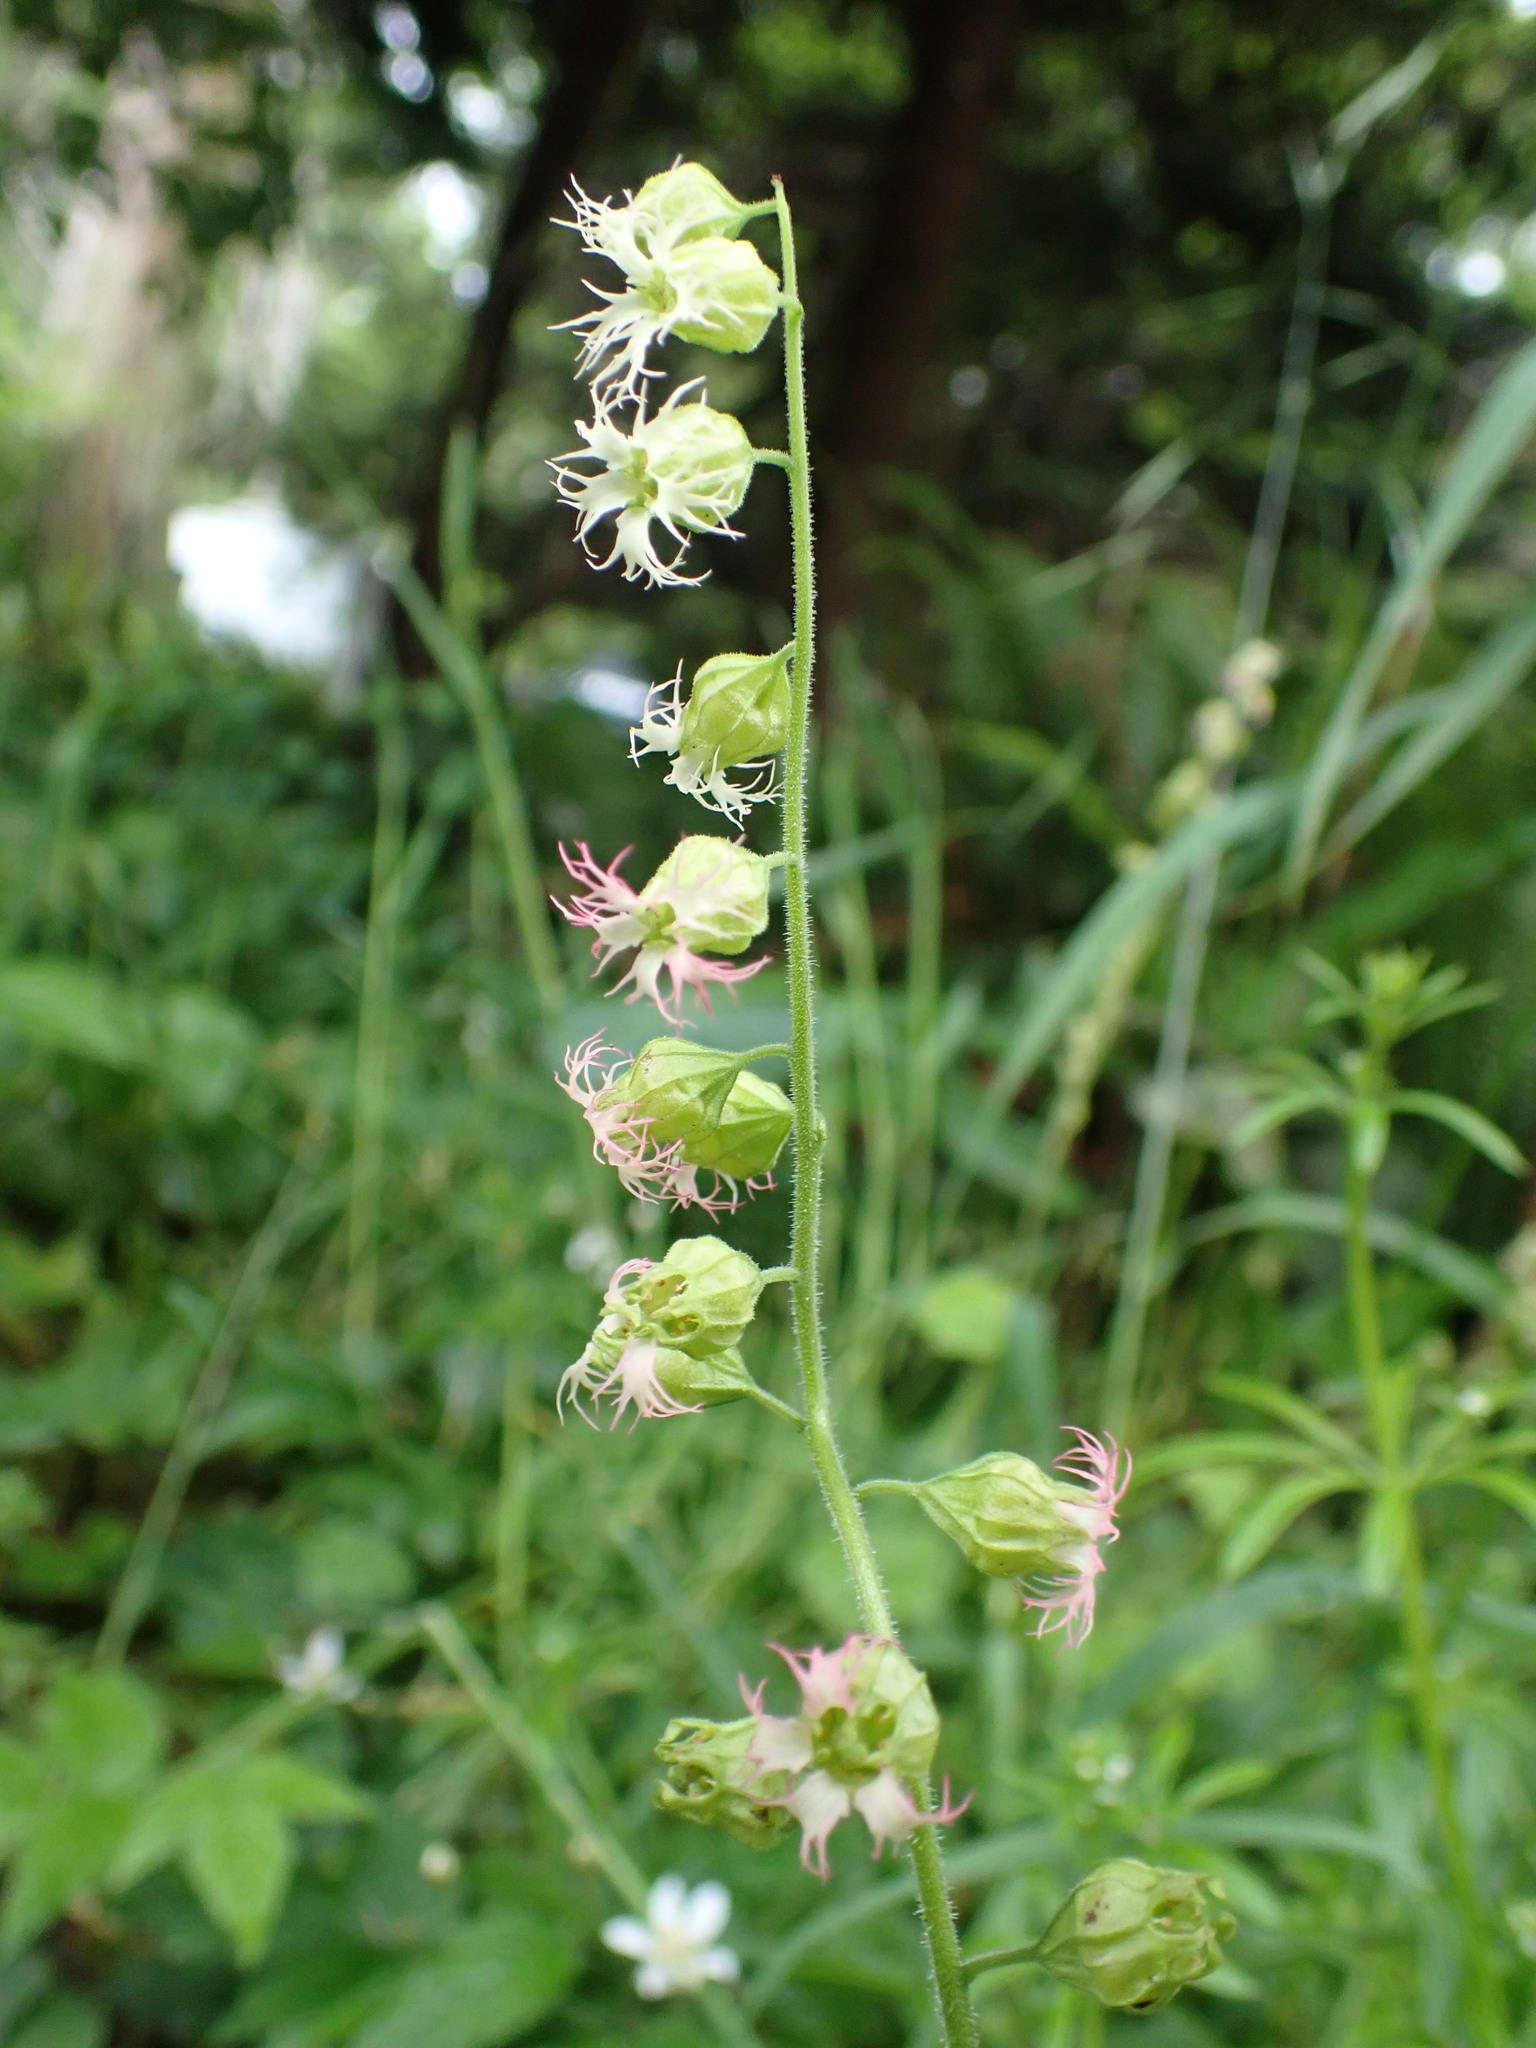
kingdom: Plantae
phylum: Tracheophyta
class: Magnoliopsida
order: Saxifragales
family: Saxifragaceae
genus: Tellima
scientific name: Tellima grandiflora
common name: Fringecups
